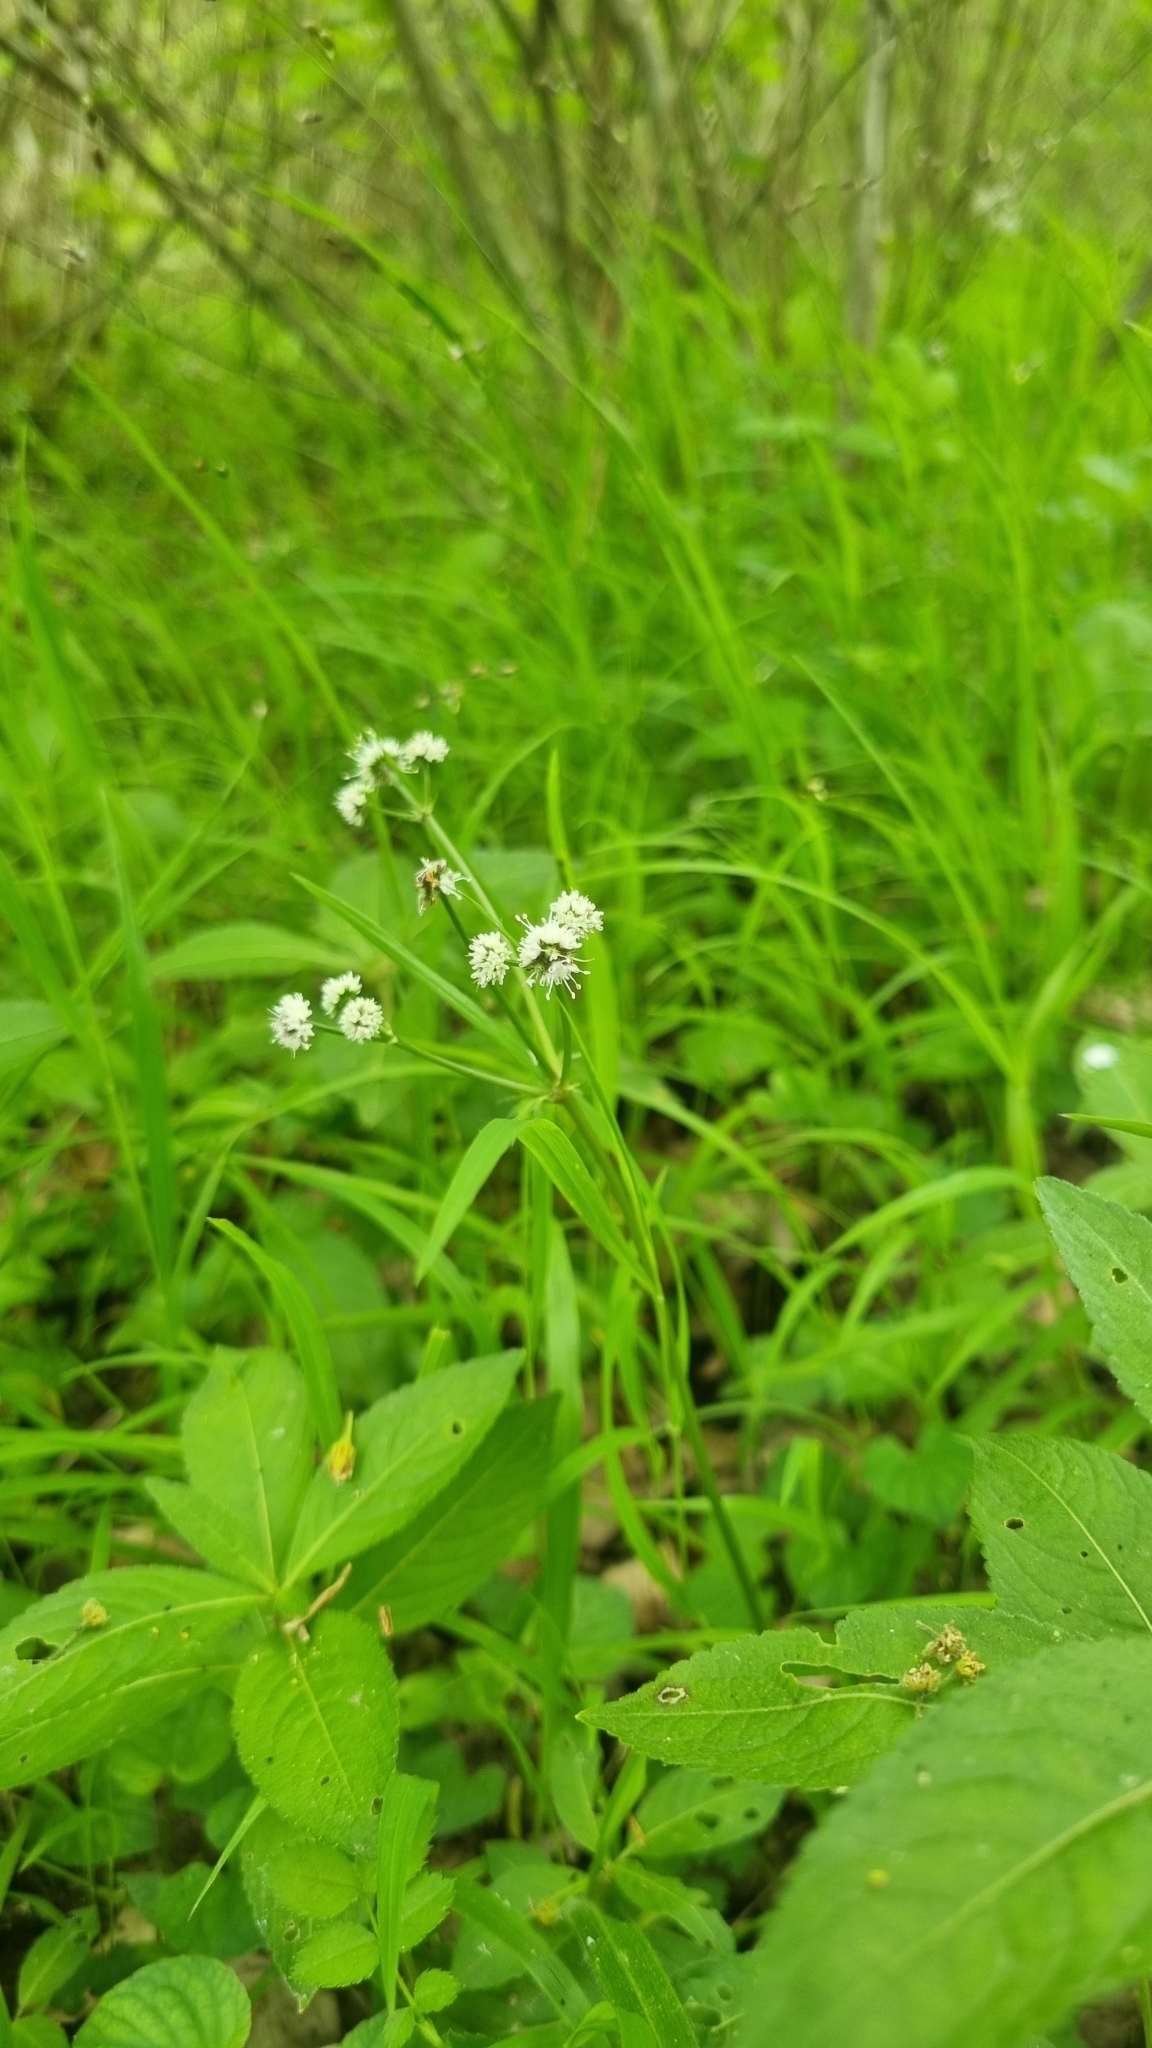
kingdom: Plantae
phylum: Tracheophyta
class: Magnoliopsida
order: Apiales
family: Apiaceae
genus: Sanicula
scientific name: Sanicula europaea
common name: Sanicle
